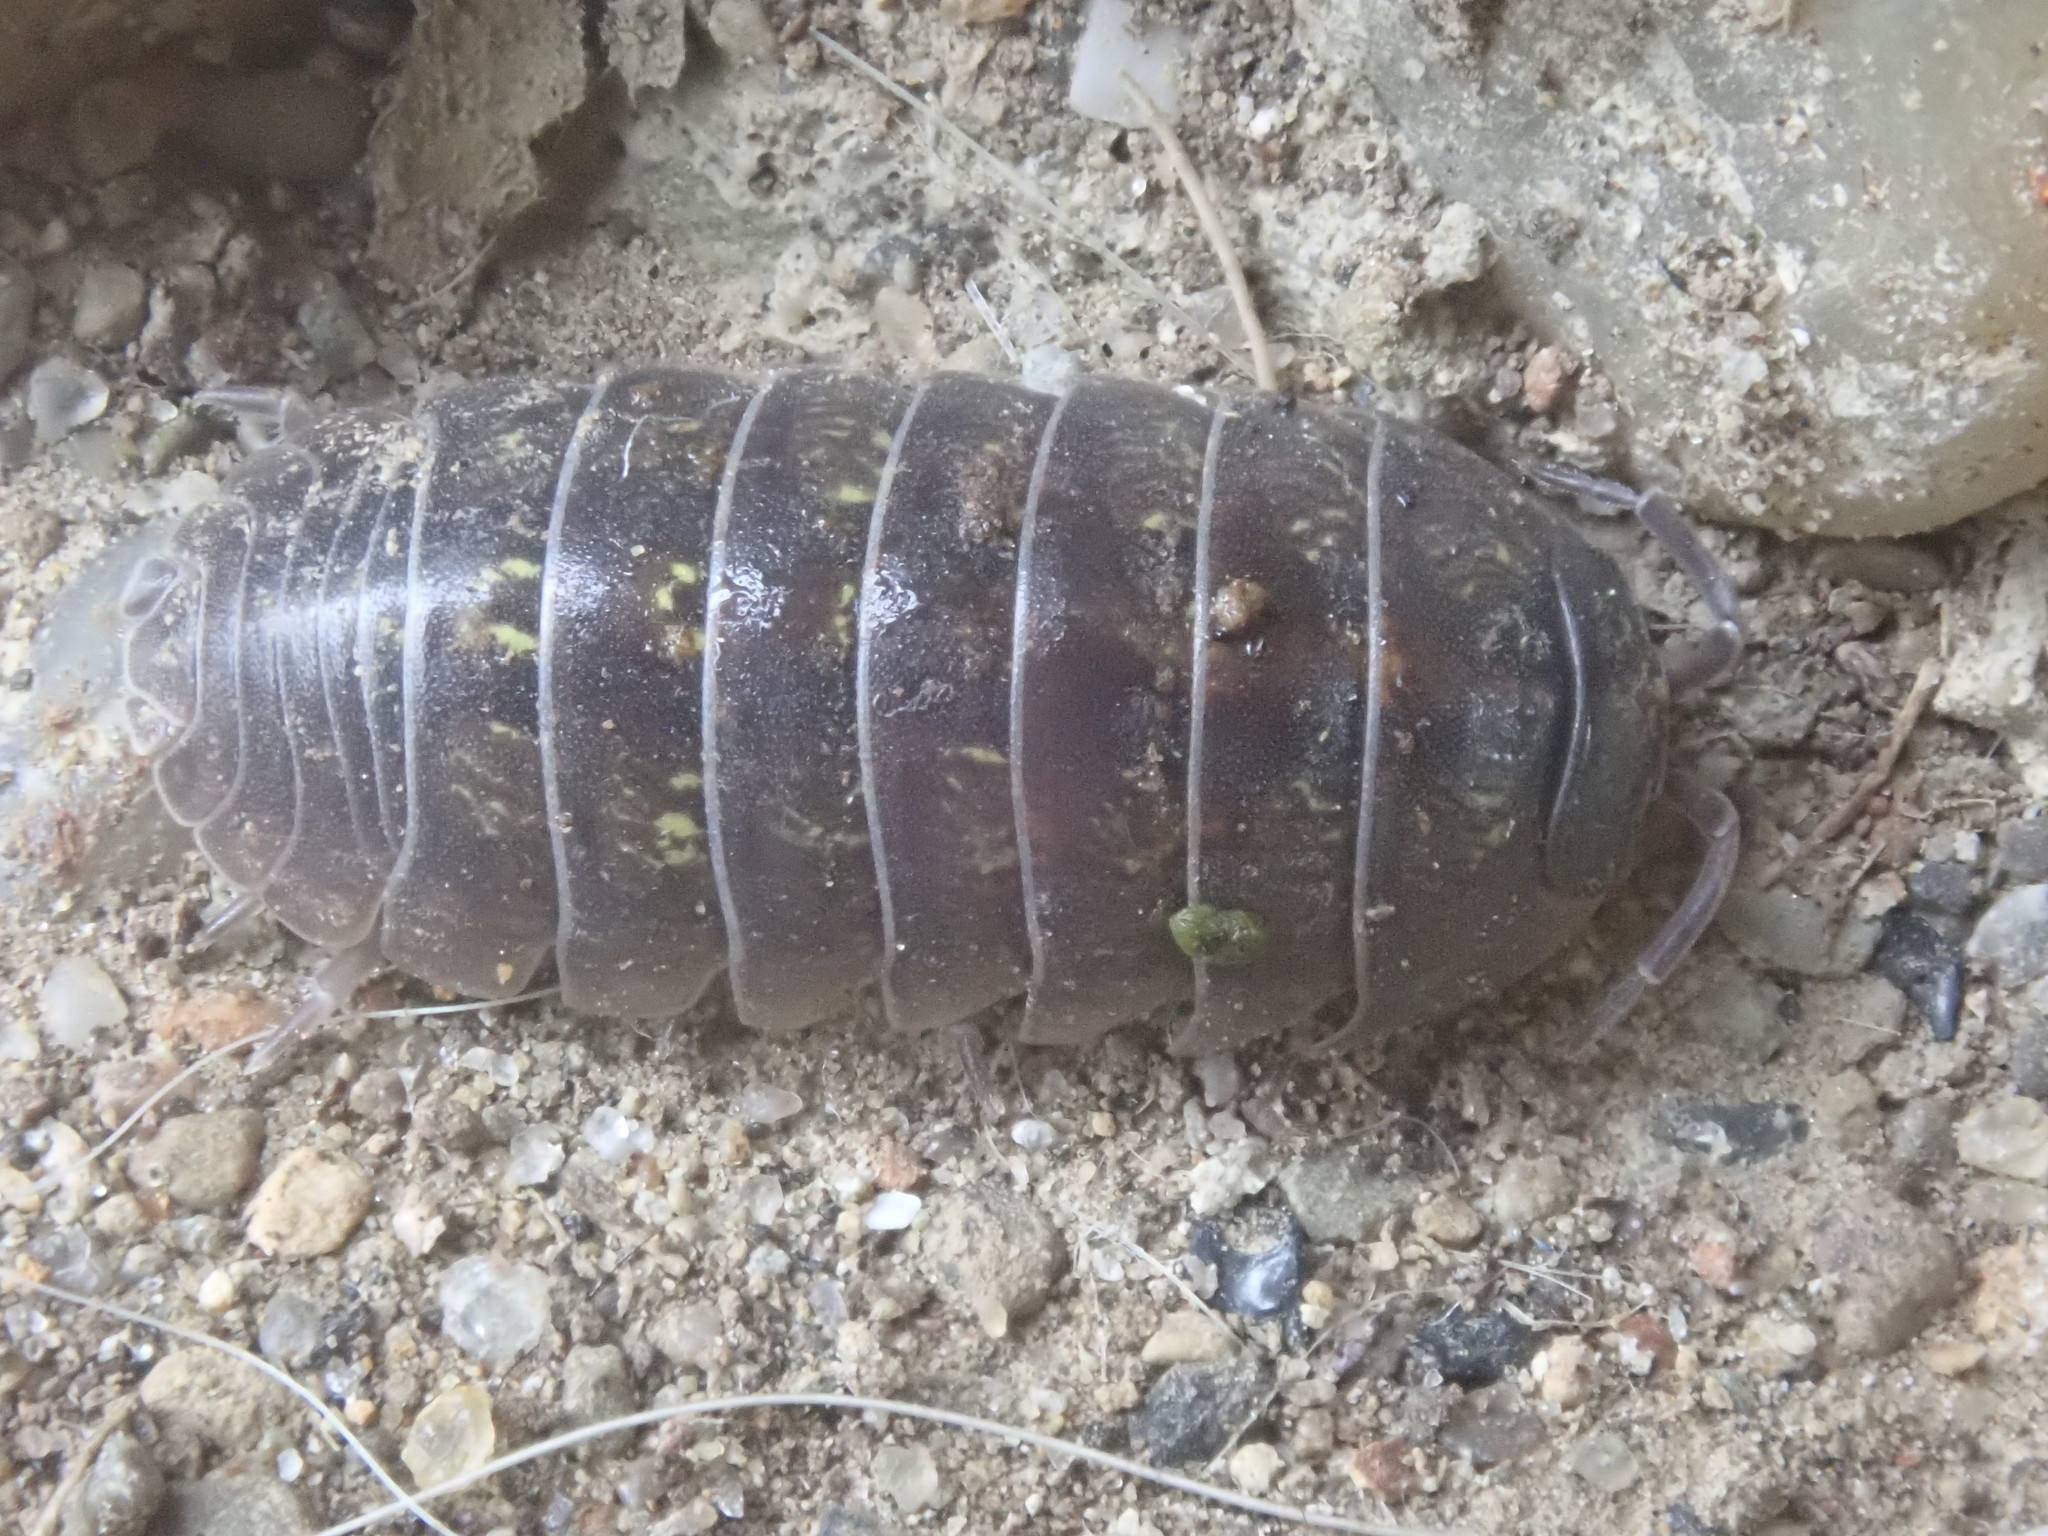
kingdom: Animalia
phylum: Arthropoda
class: Malacostraca
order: Isopoda
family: Armadillidiidae
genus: Armadillidium
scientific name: Armadillidium vulgare
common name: Common pill woodlouse
